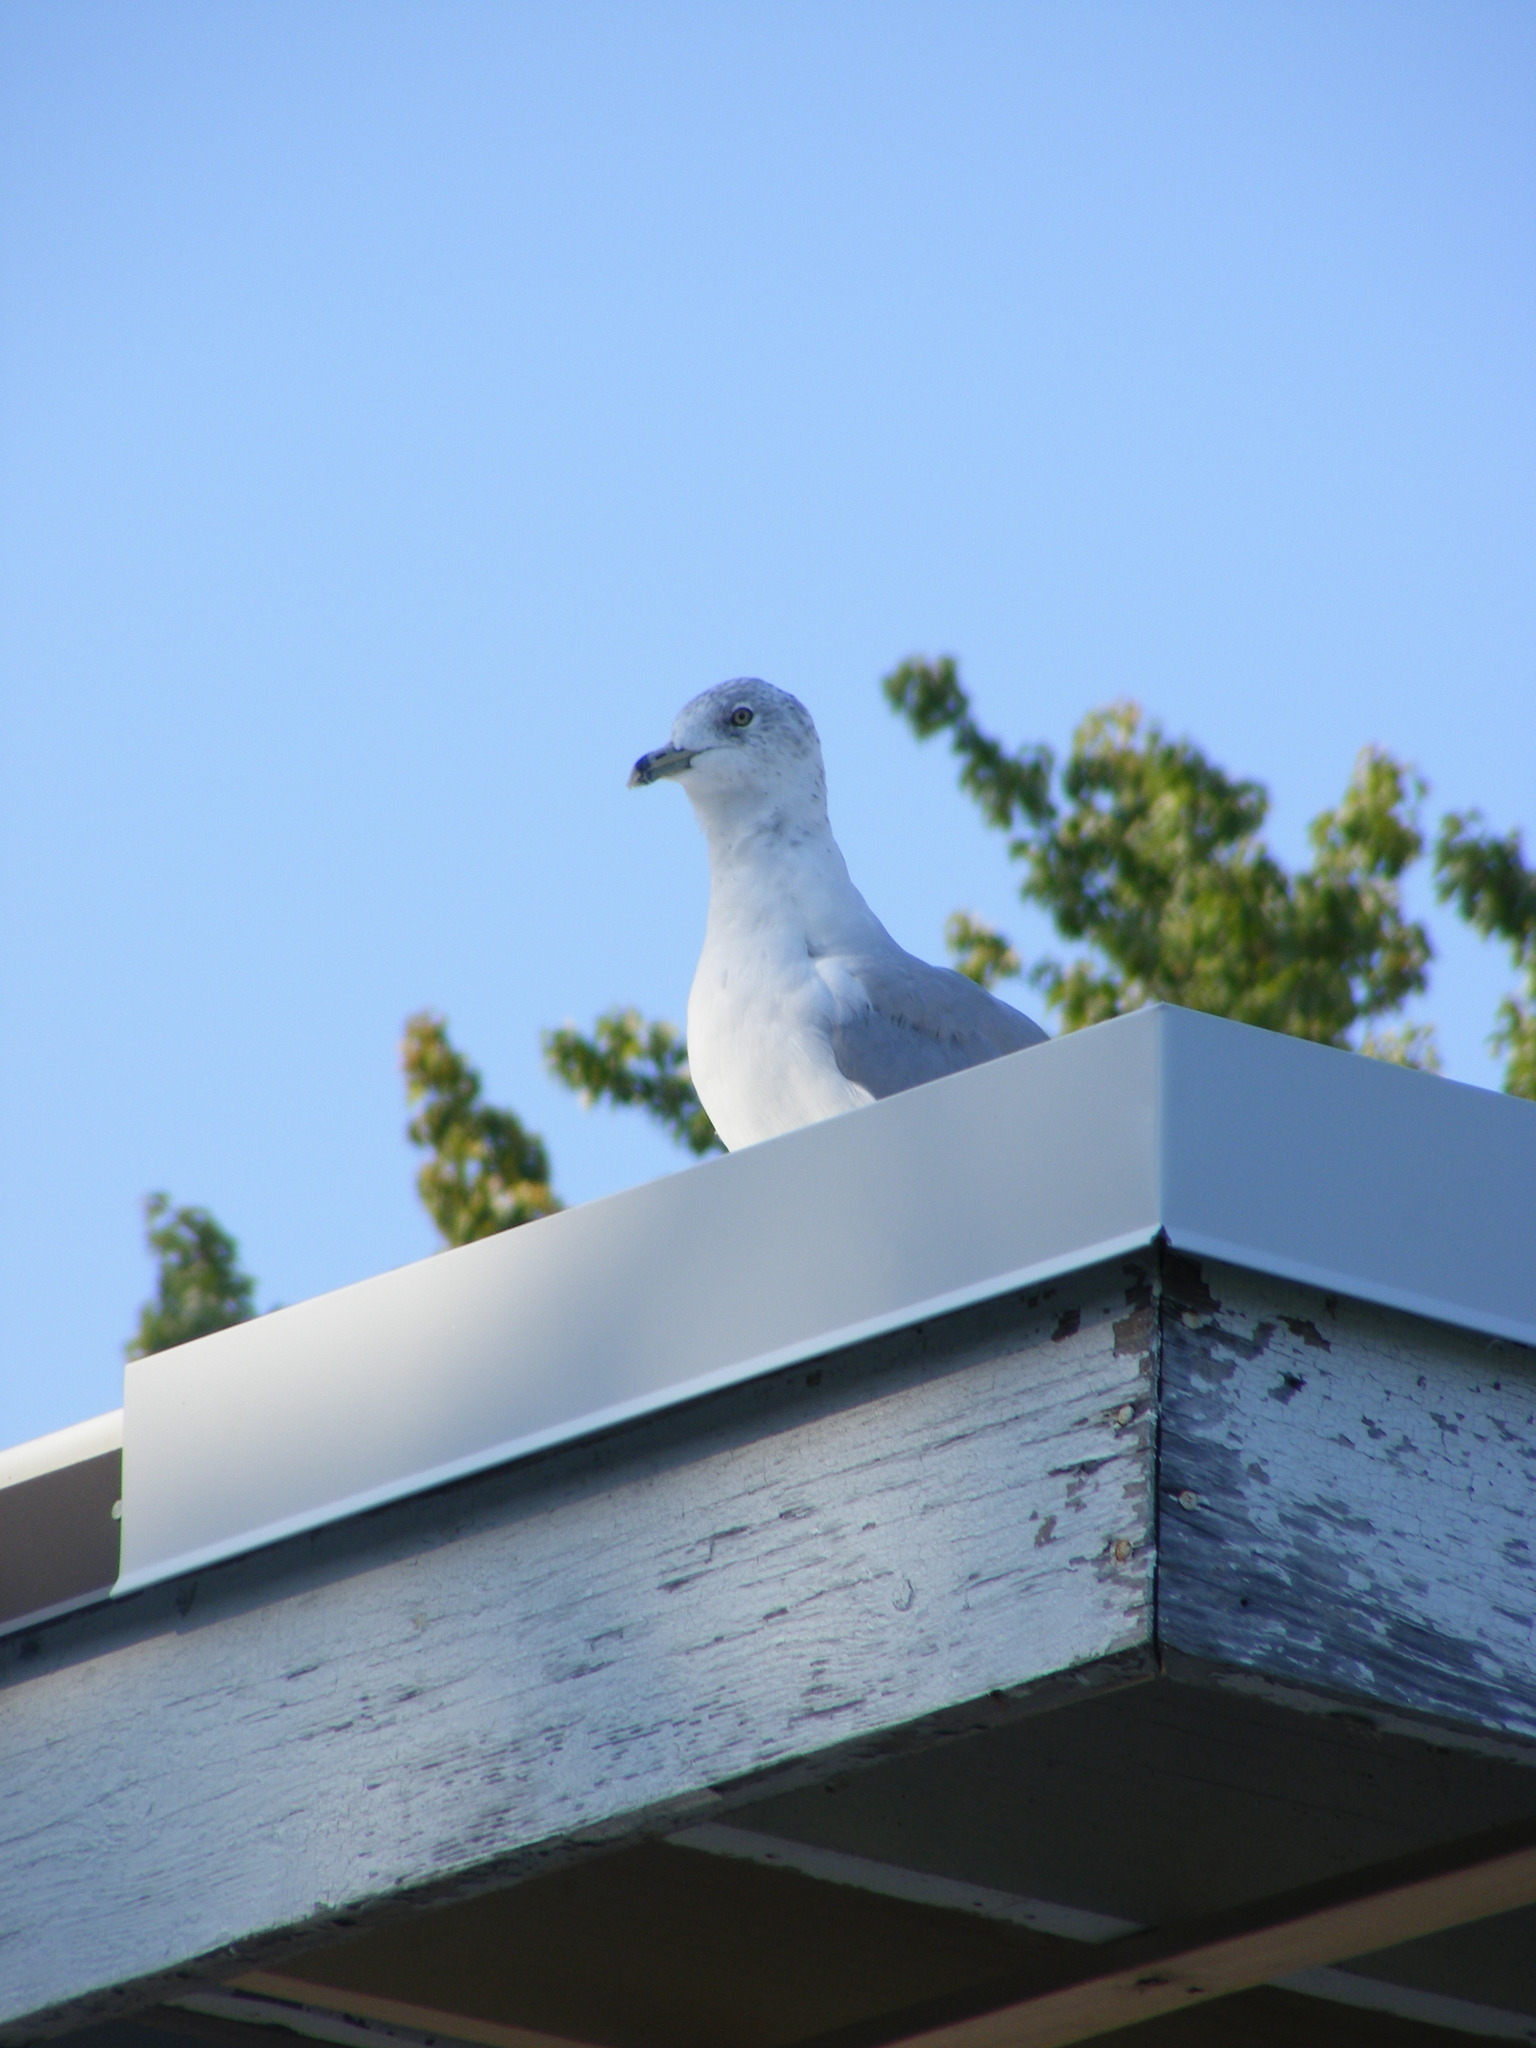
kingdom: Animalia
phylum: Chordata
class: Aves
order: Charadriiformes
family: Laridae
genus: Larus
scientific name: Larus delawarensis
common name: Ring-billed gull
